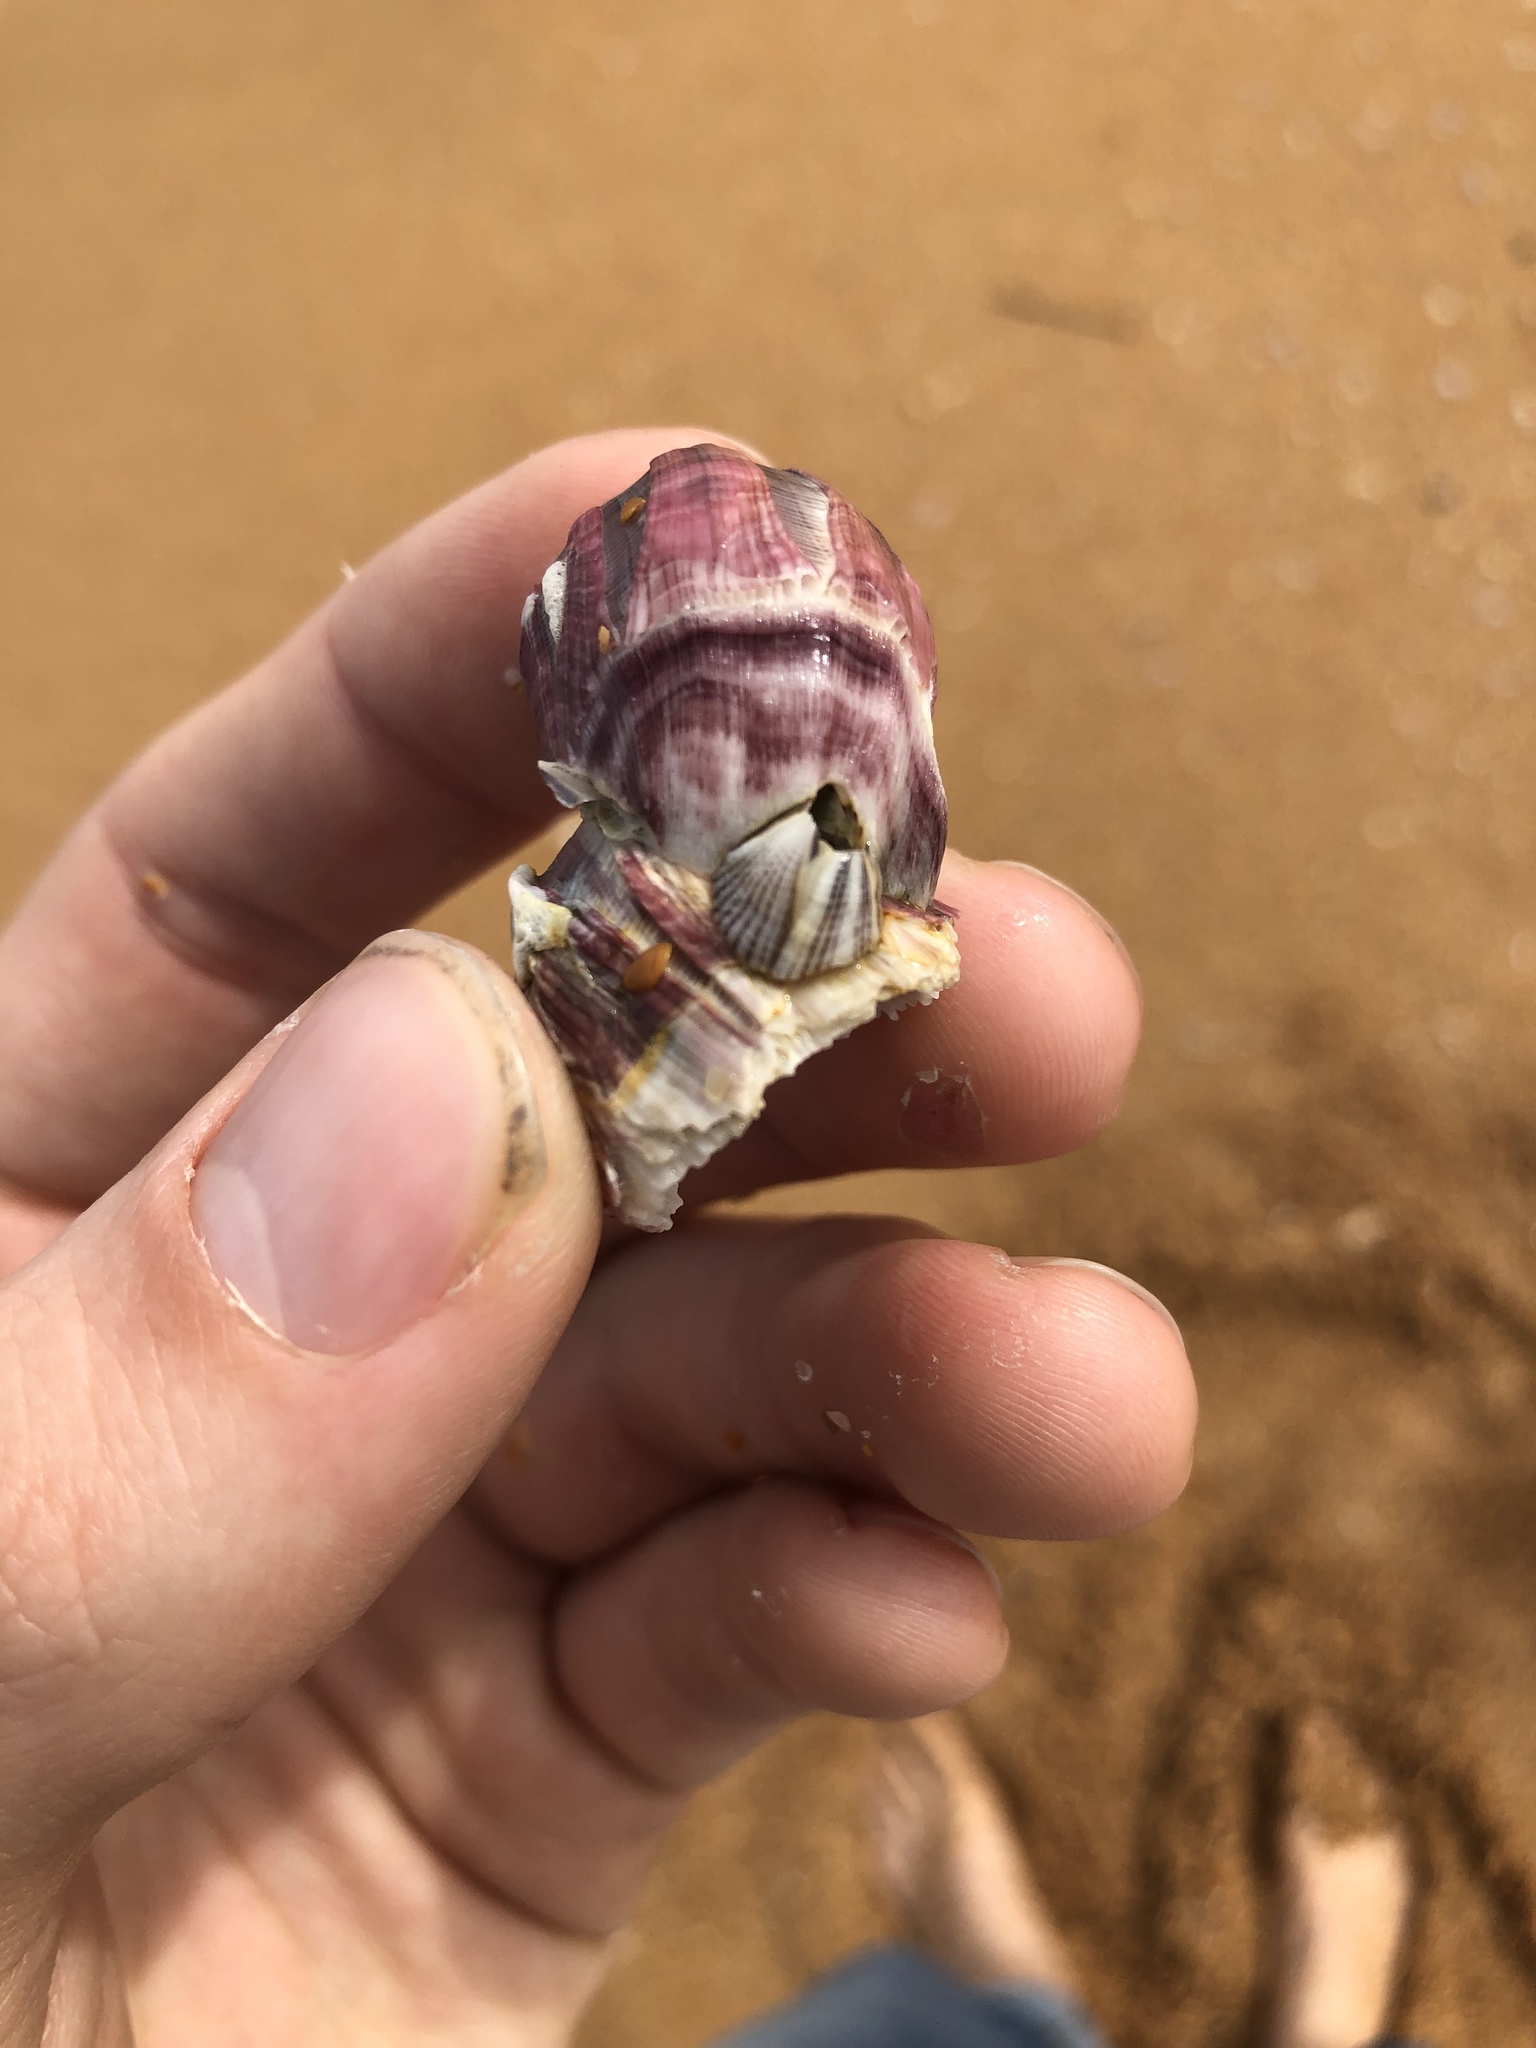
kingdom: Animalia
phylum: Arthropoda
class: Maxillopoda
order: Sessilia
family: Balanidae
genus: Amphibalanus
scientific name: Amphibalanus reticulatus
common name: Reticulated barnacle
